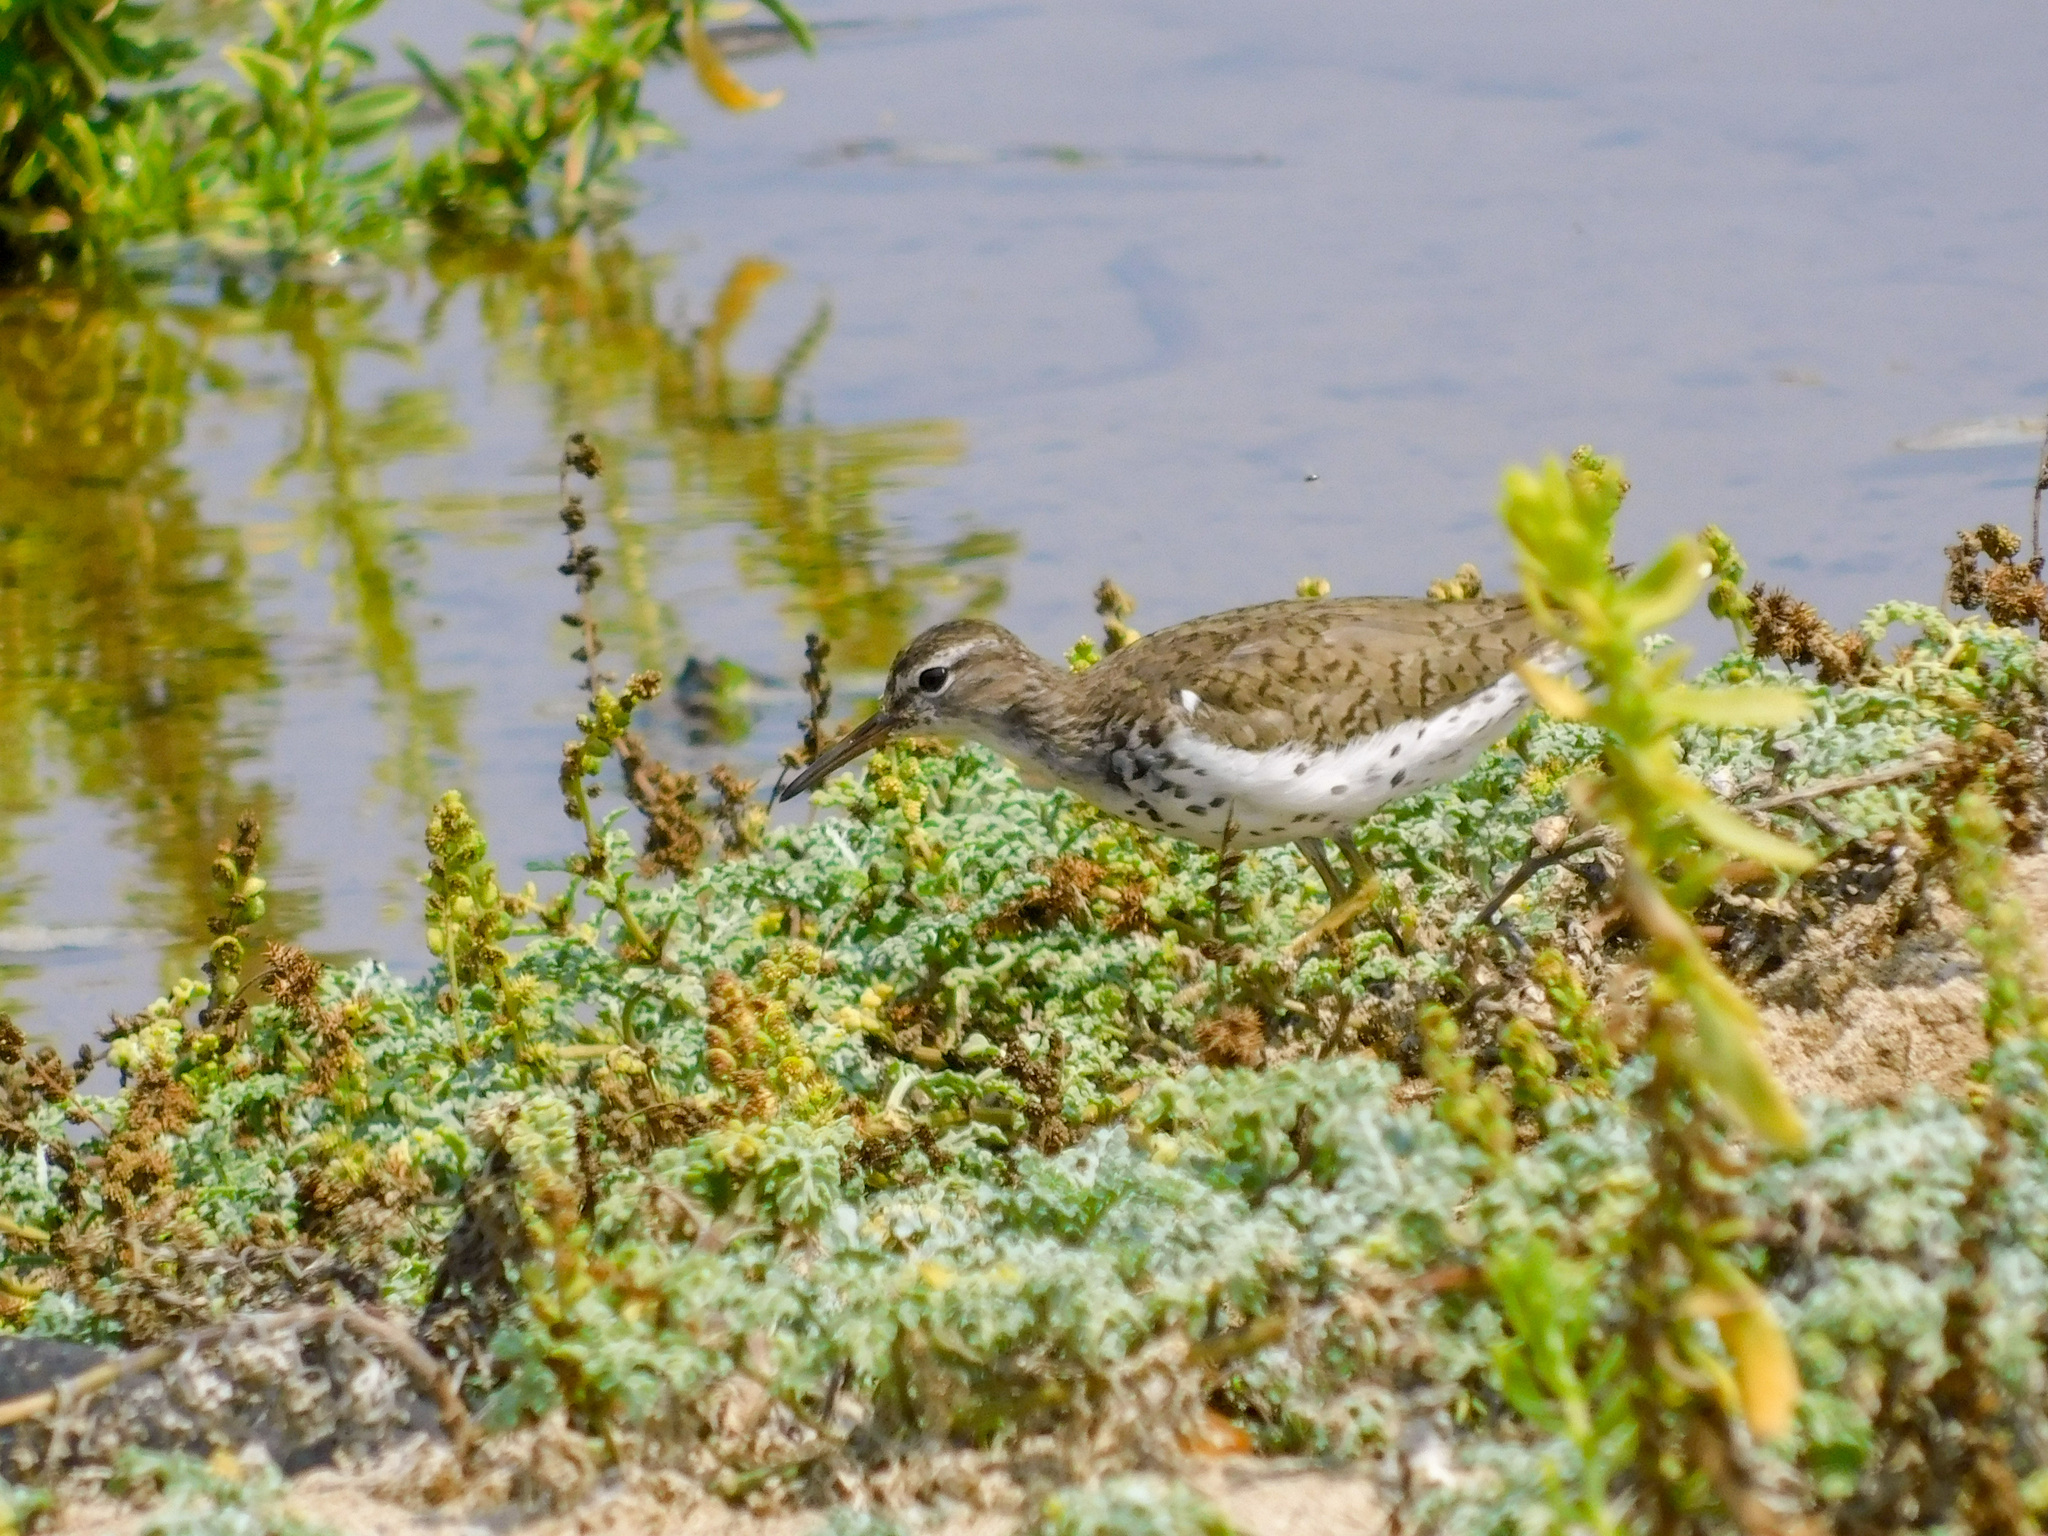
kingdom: Animalia
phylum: Chordata
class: Aves
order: Charadriiformes
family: Scolopacidae
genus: Actitis
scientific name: Actitis macularius
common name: Spotted sandpiper
